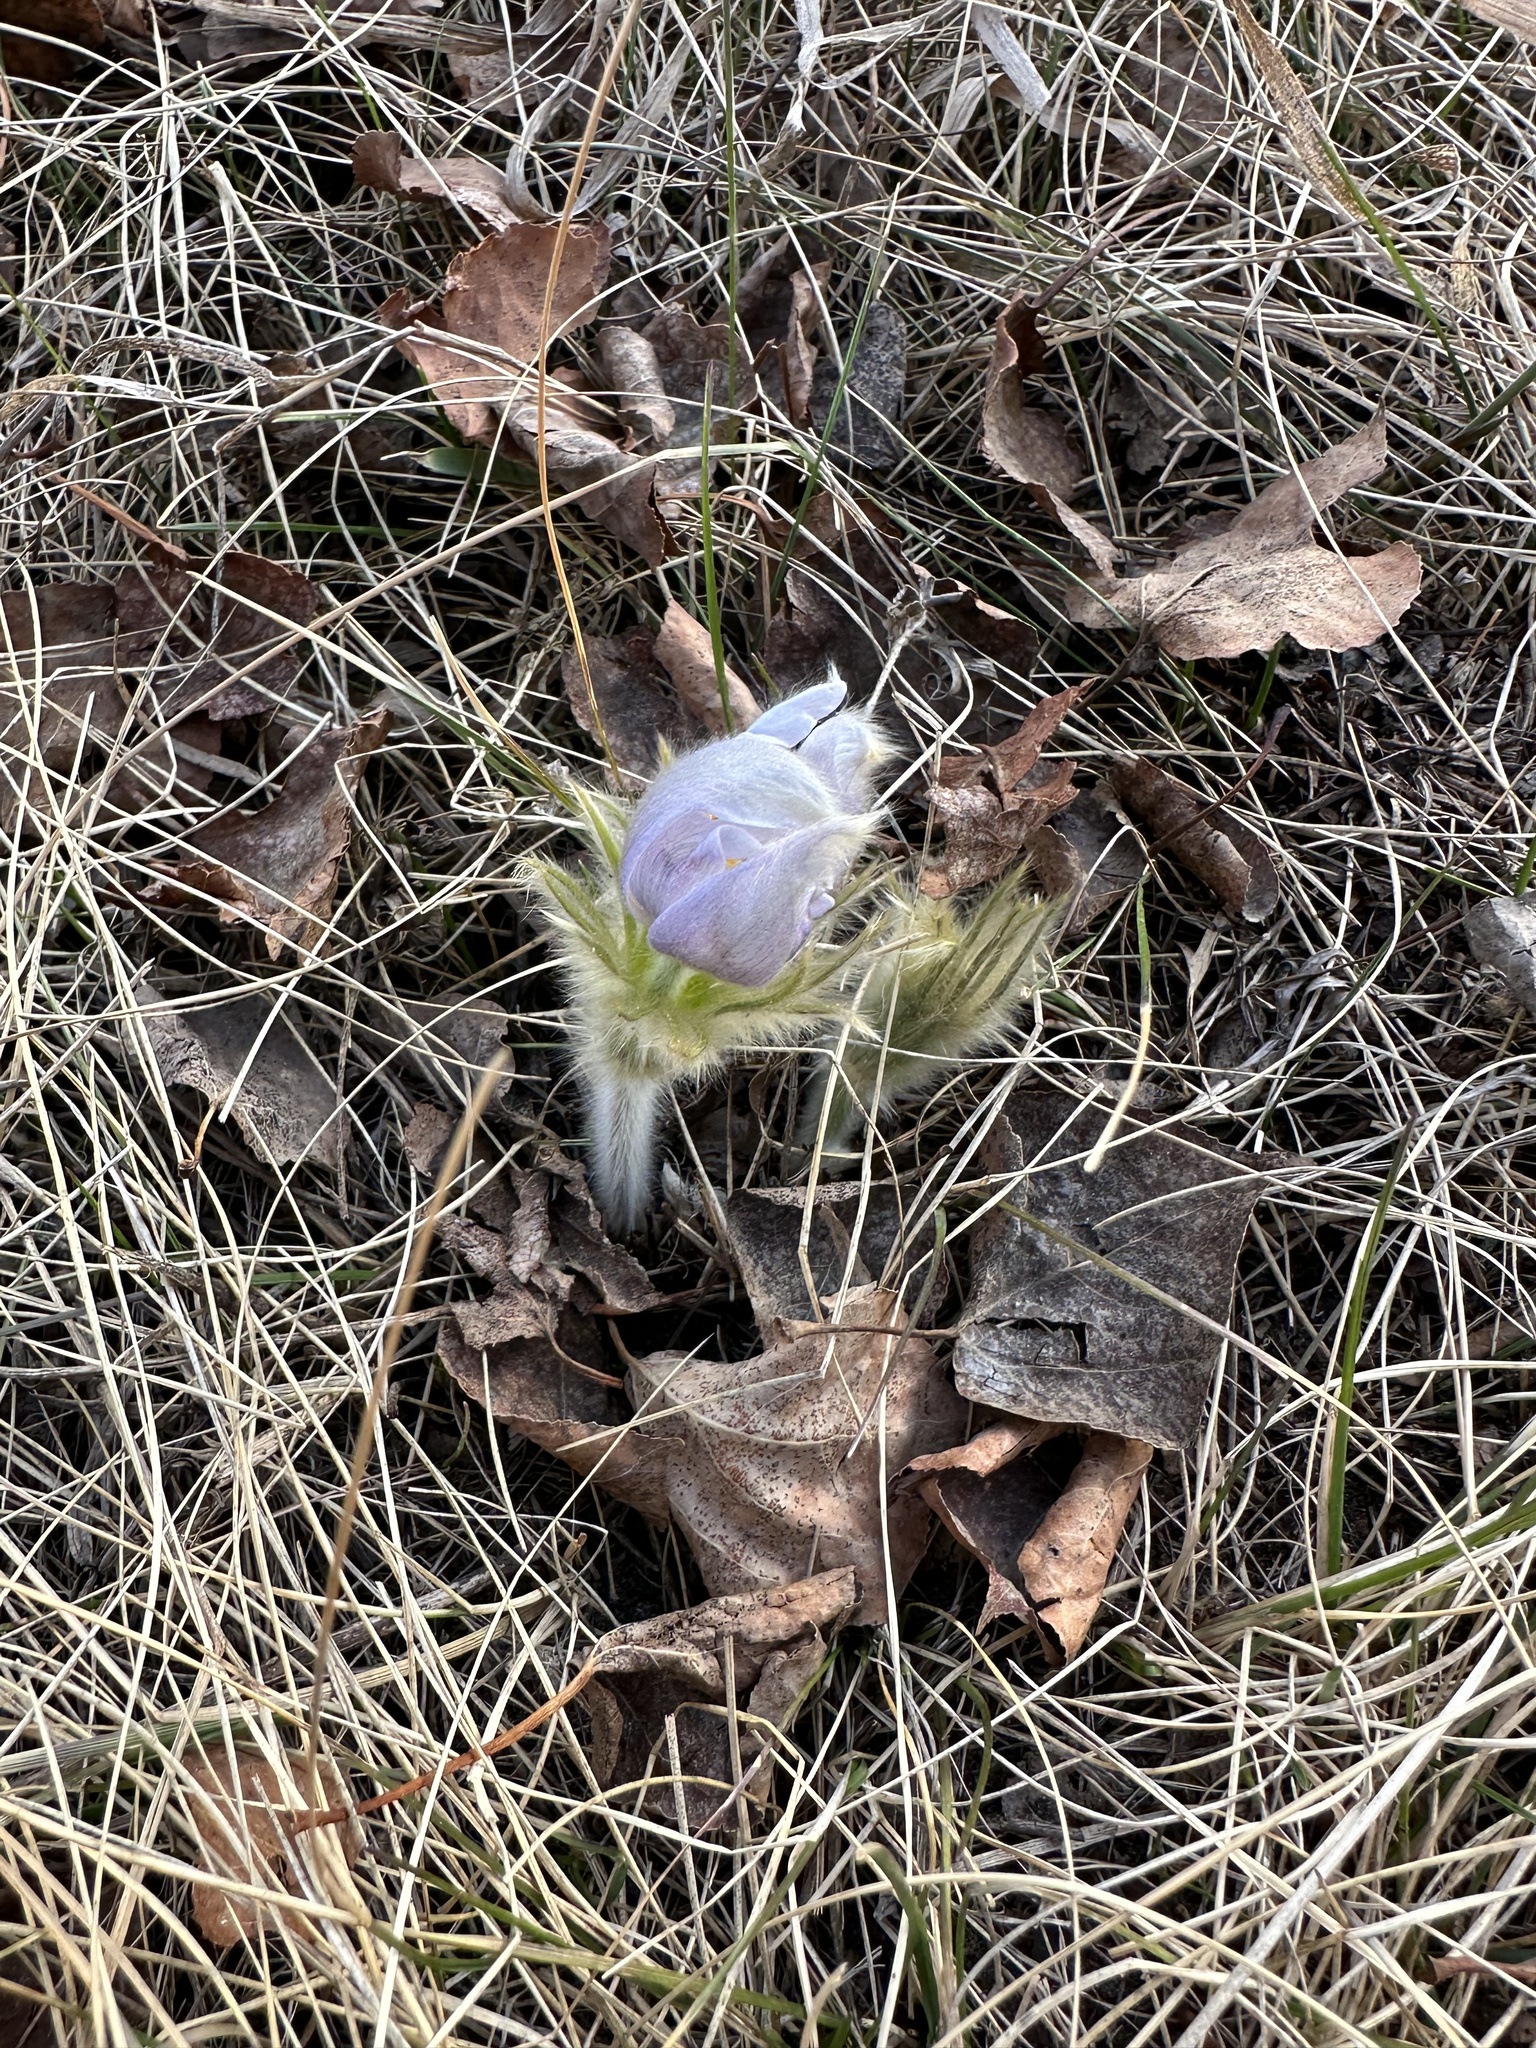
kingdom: Plantae
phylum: Tracheophyta
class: Magnoliopsida
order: Ranunculales
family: Ranunculaceae
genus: Pulsatilla
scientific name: Pulsatilla nuttalliana
